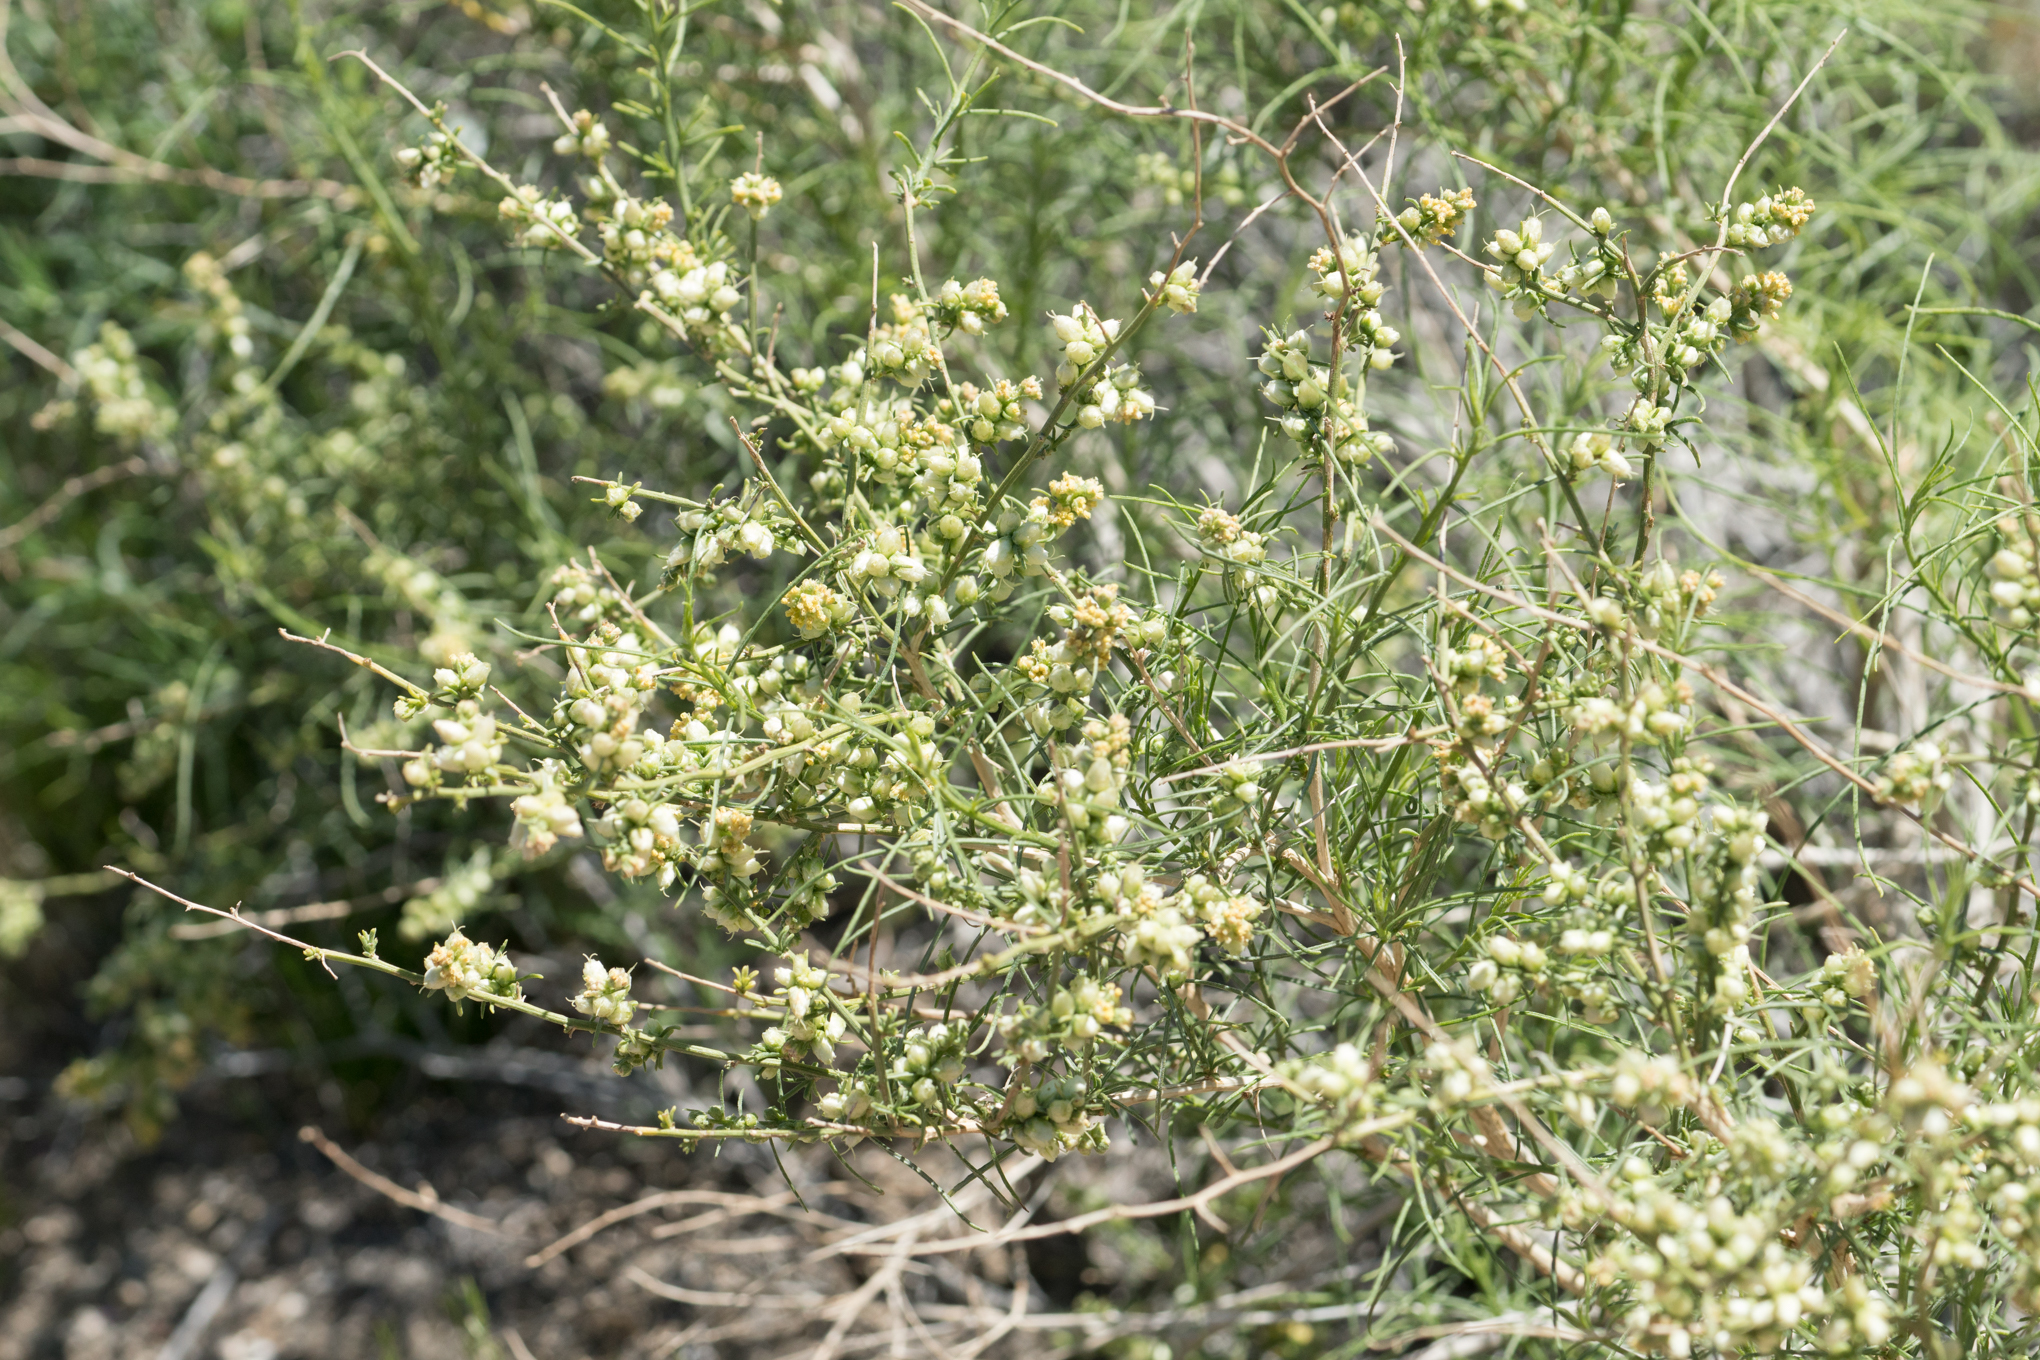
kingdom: Plantae
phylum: Tracheophyta
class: Magnoliopsida
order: Asterales
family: Asteraceae
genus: Ambrosia
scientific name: Ambrosia salsola
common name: Burrobrush
